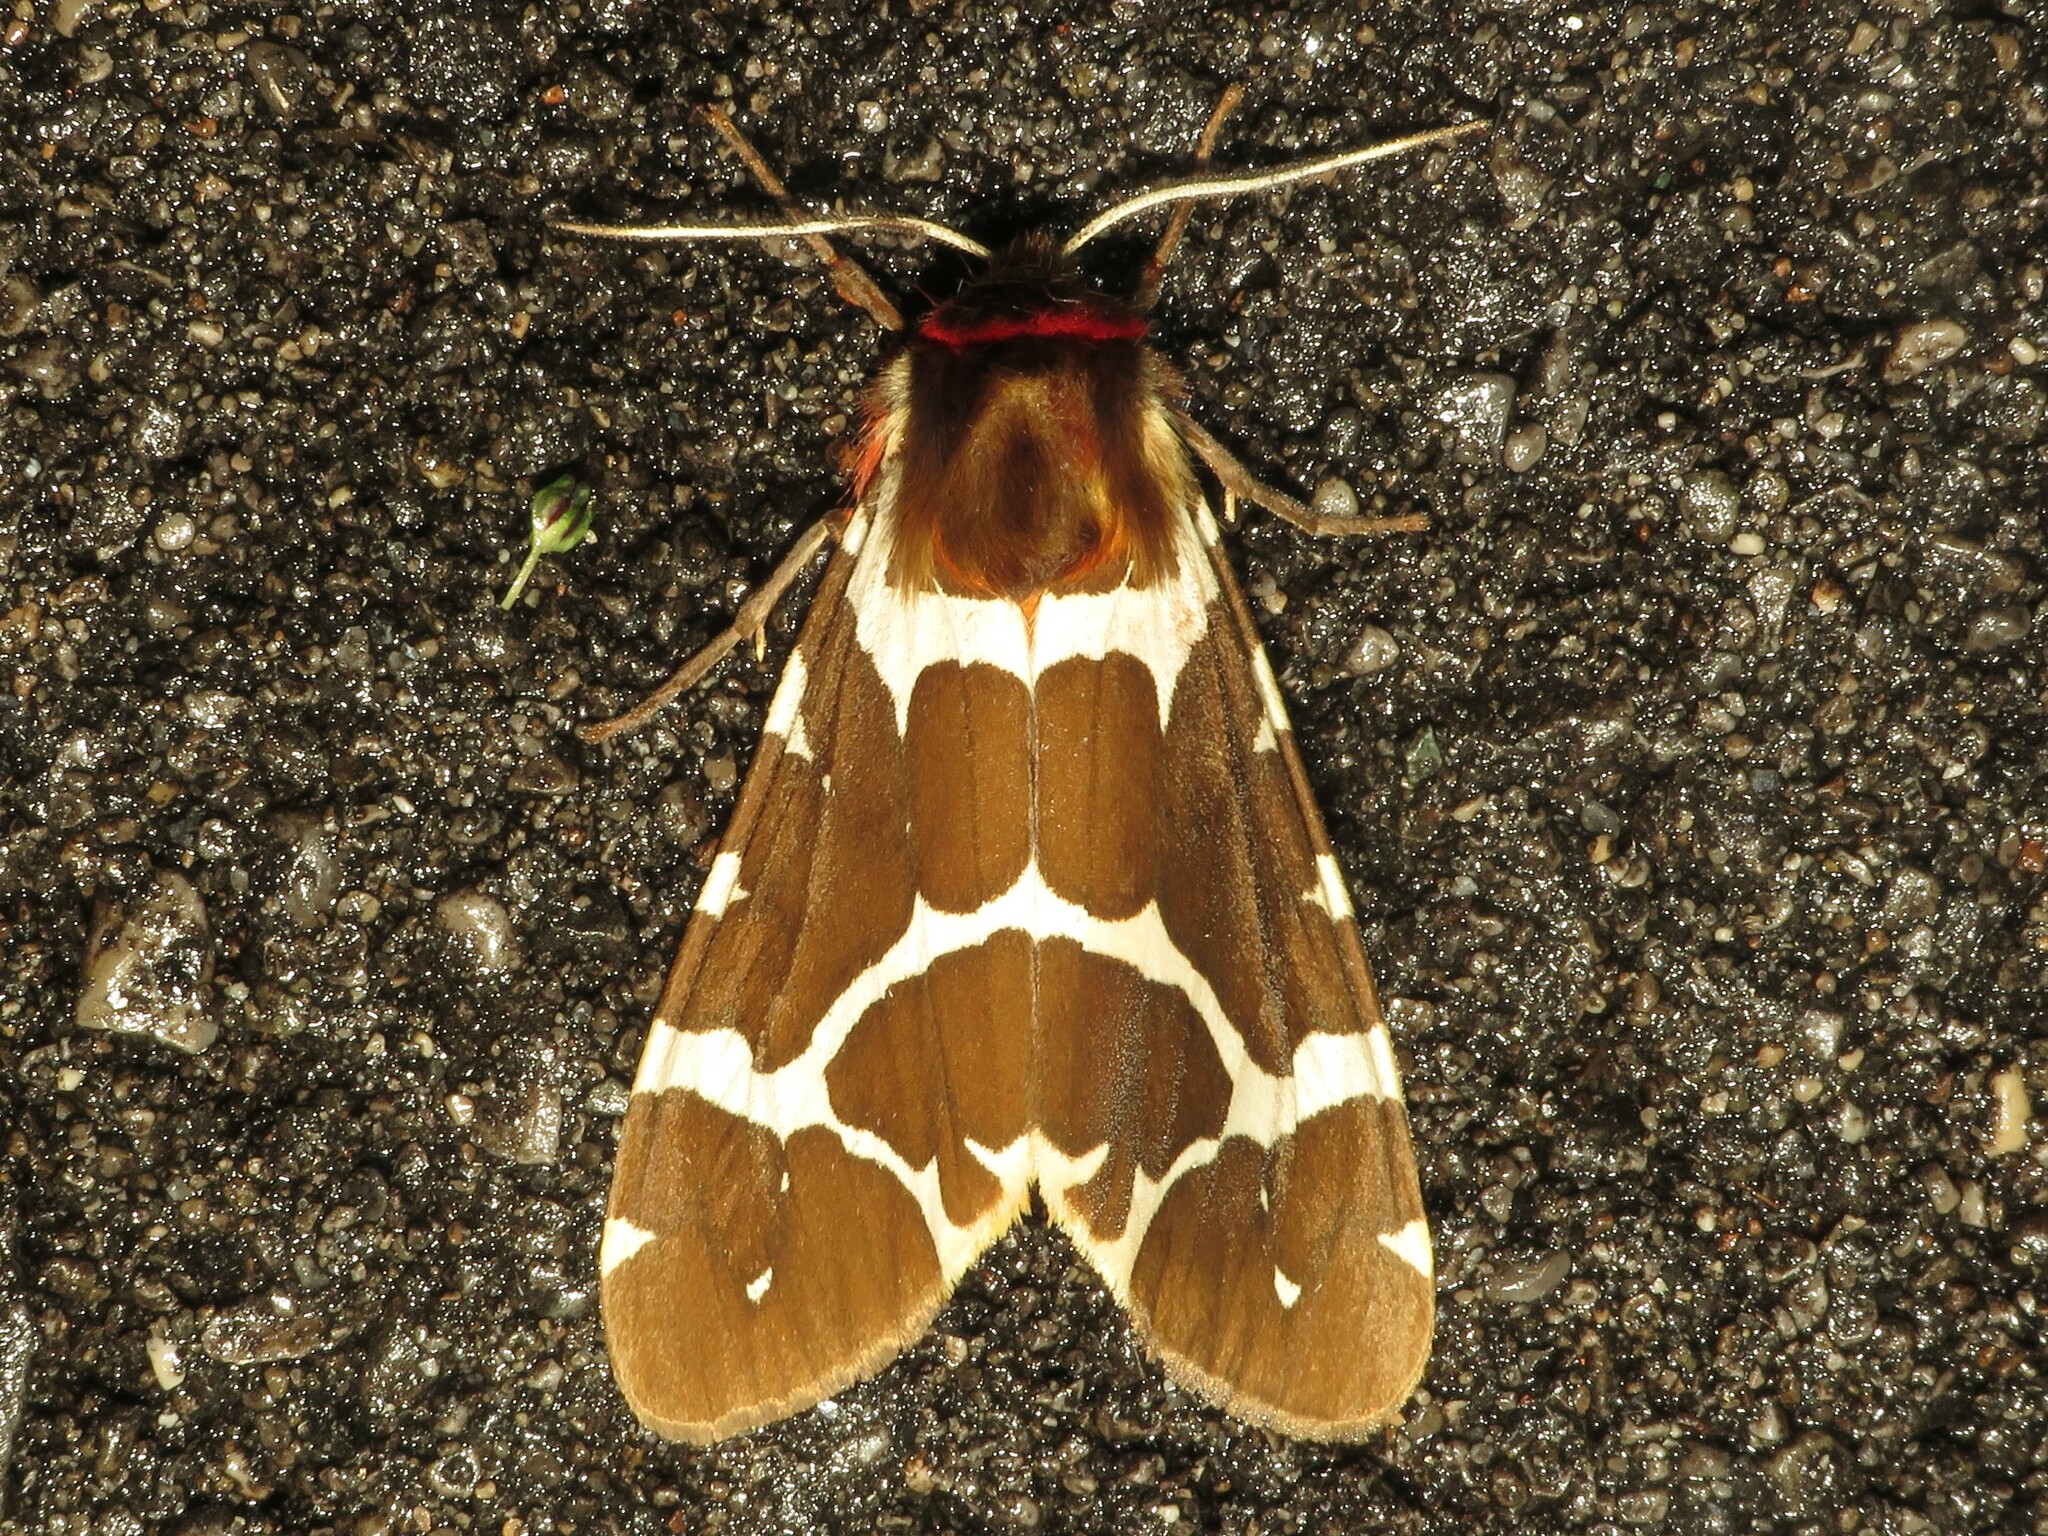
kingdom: Animalia
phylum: Arthropoda
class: Insecta
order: Lepidoptera
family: Erebidae
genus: Arctia
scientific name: Arctia caja
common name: Garden tiger
